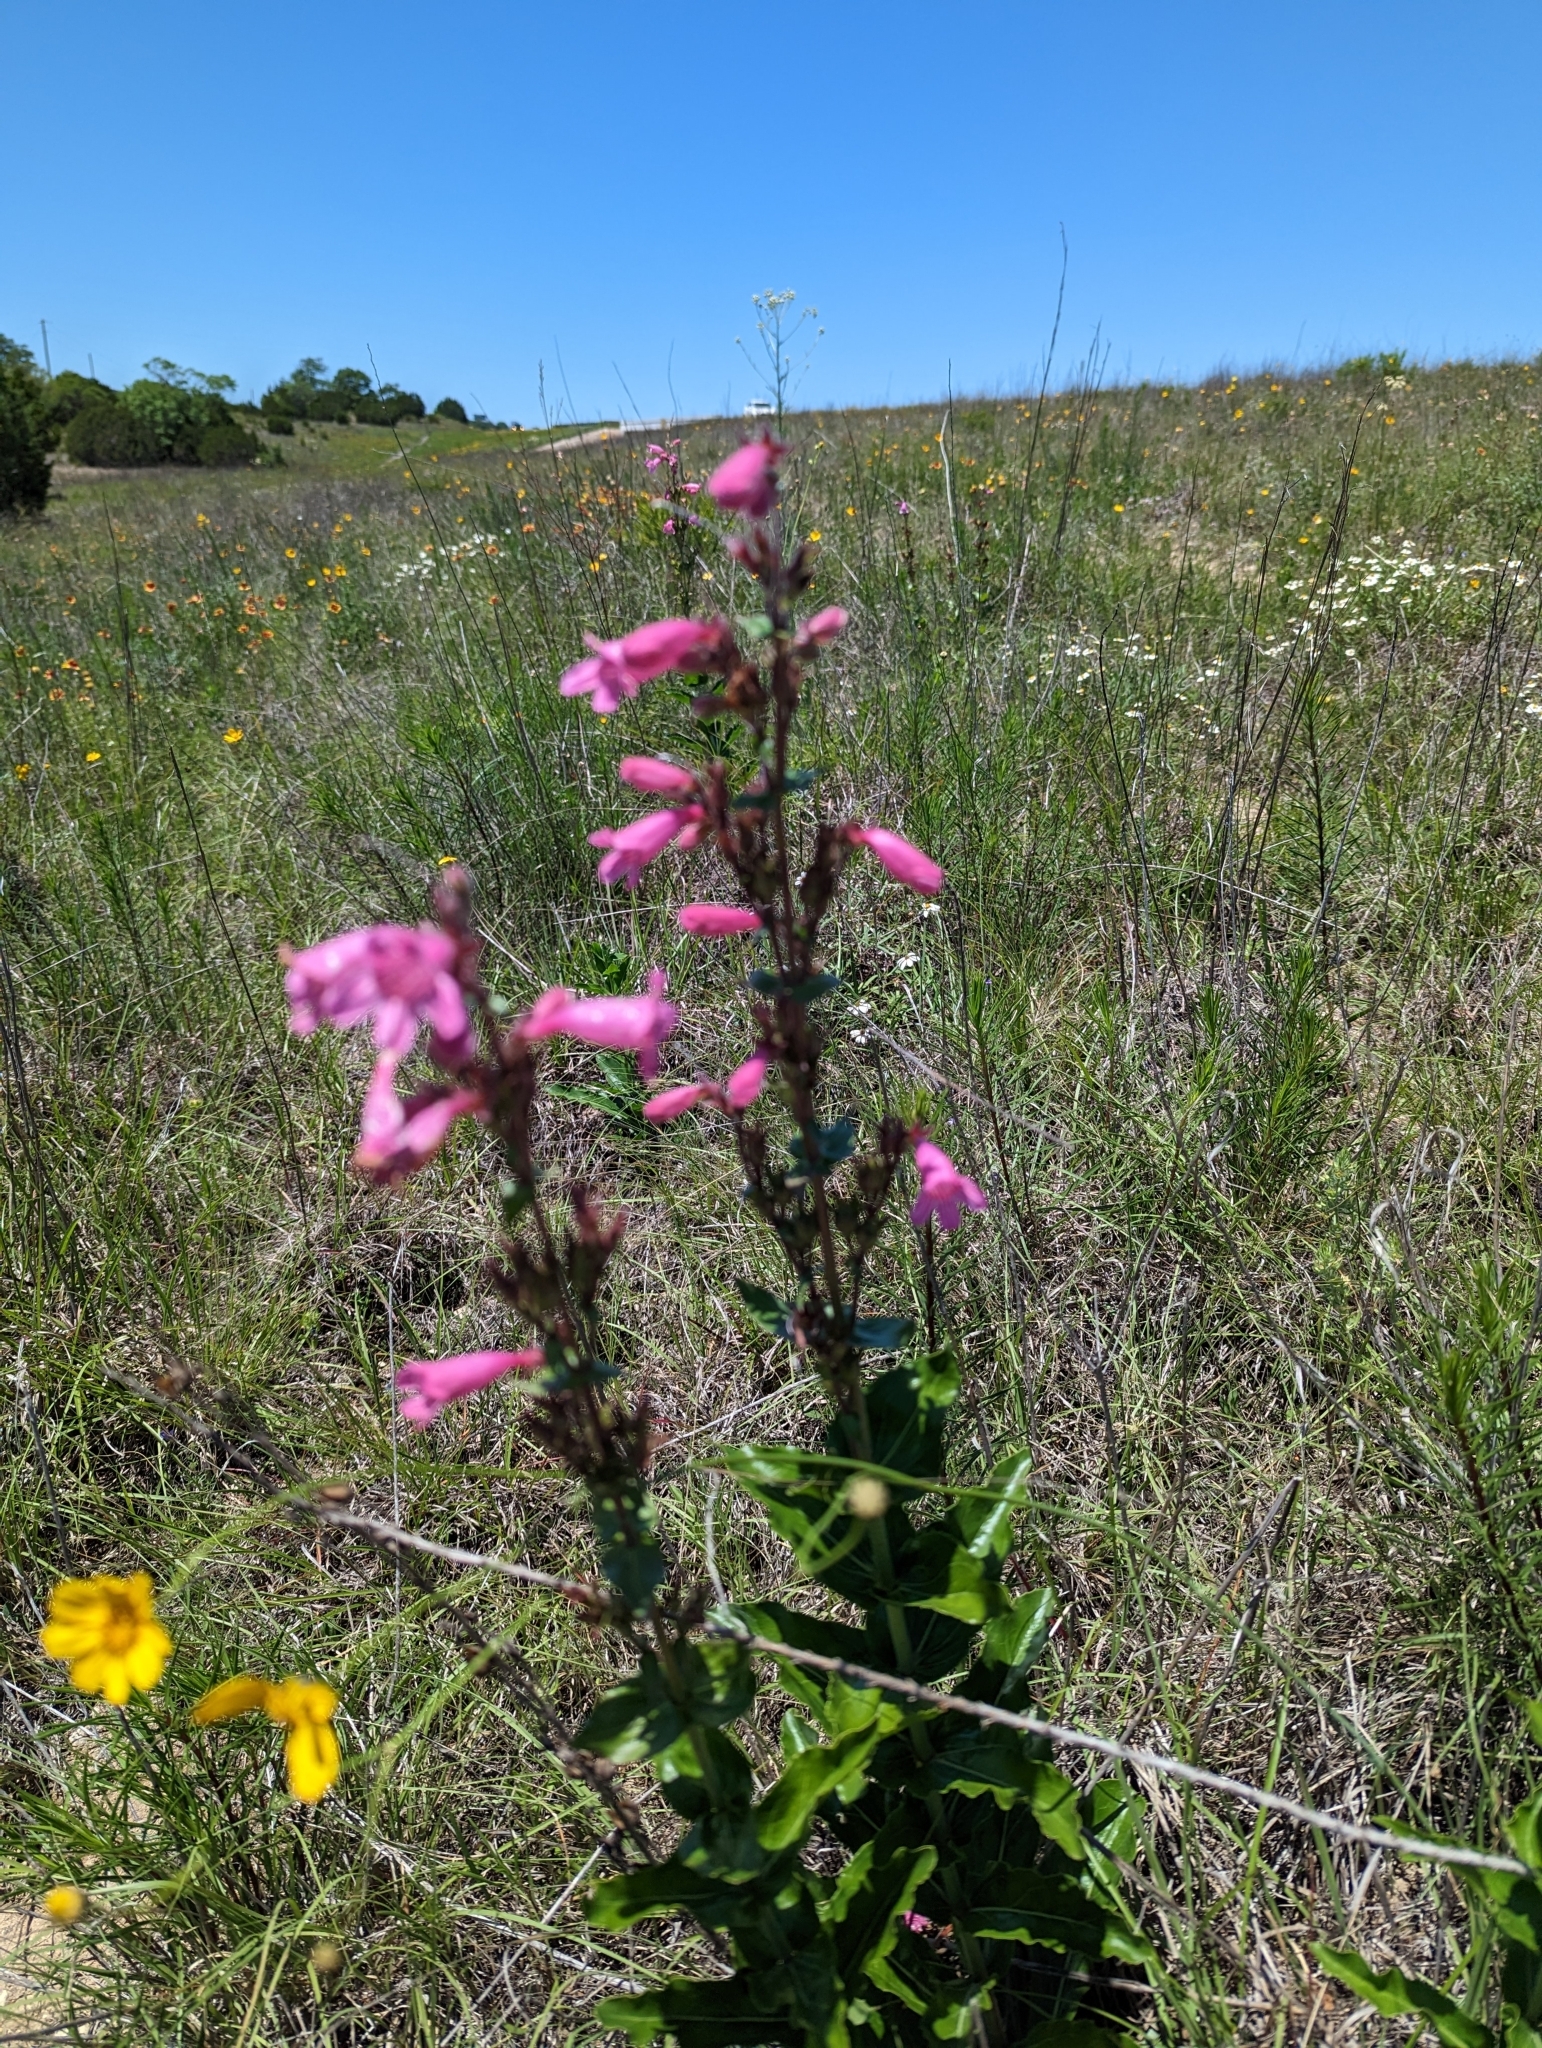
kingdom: Plantae
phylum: Tracheophyta
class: Magnoliopsida
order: Lamiales
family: Plantaginaceae
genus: Penstemon
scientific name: Penstemon triflorus
